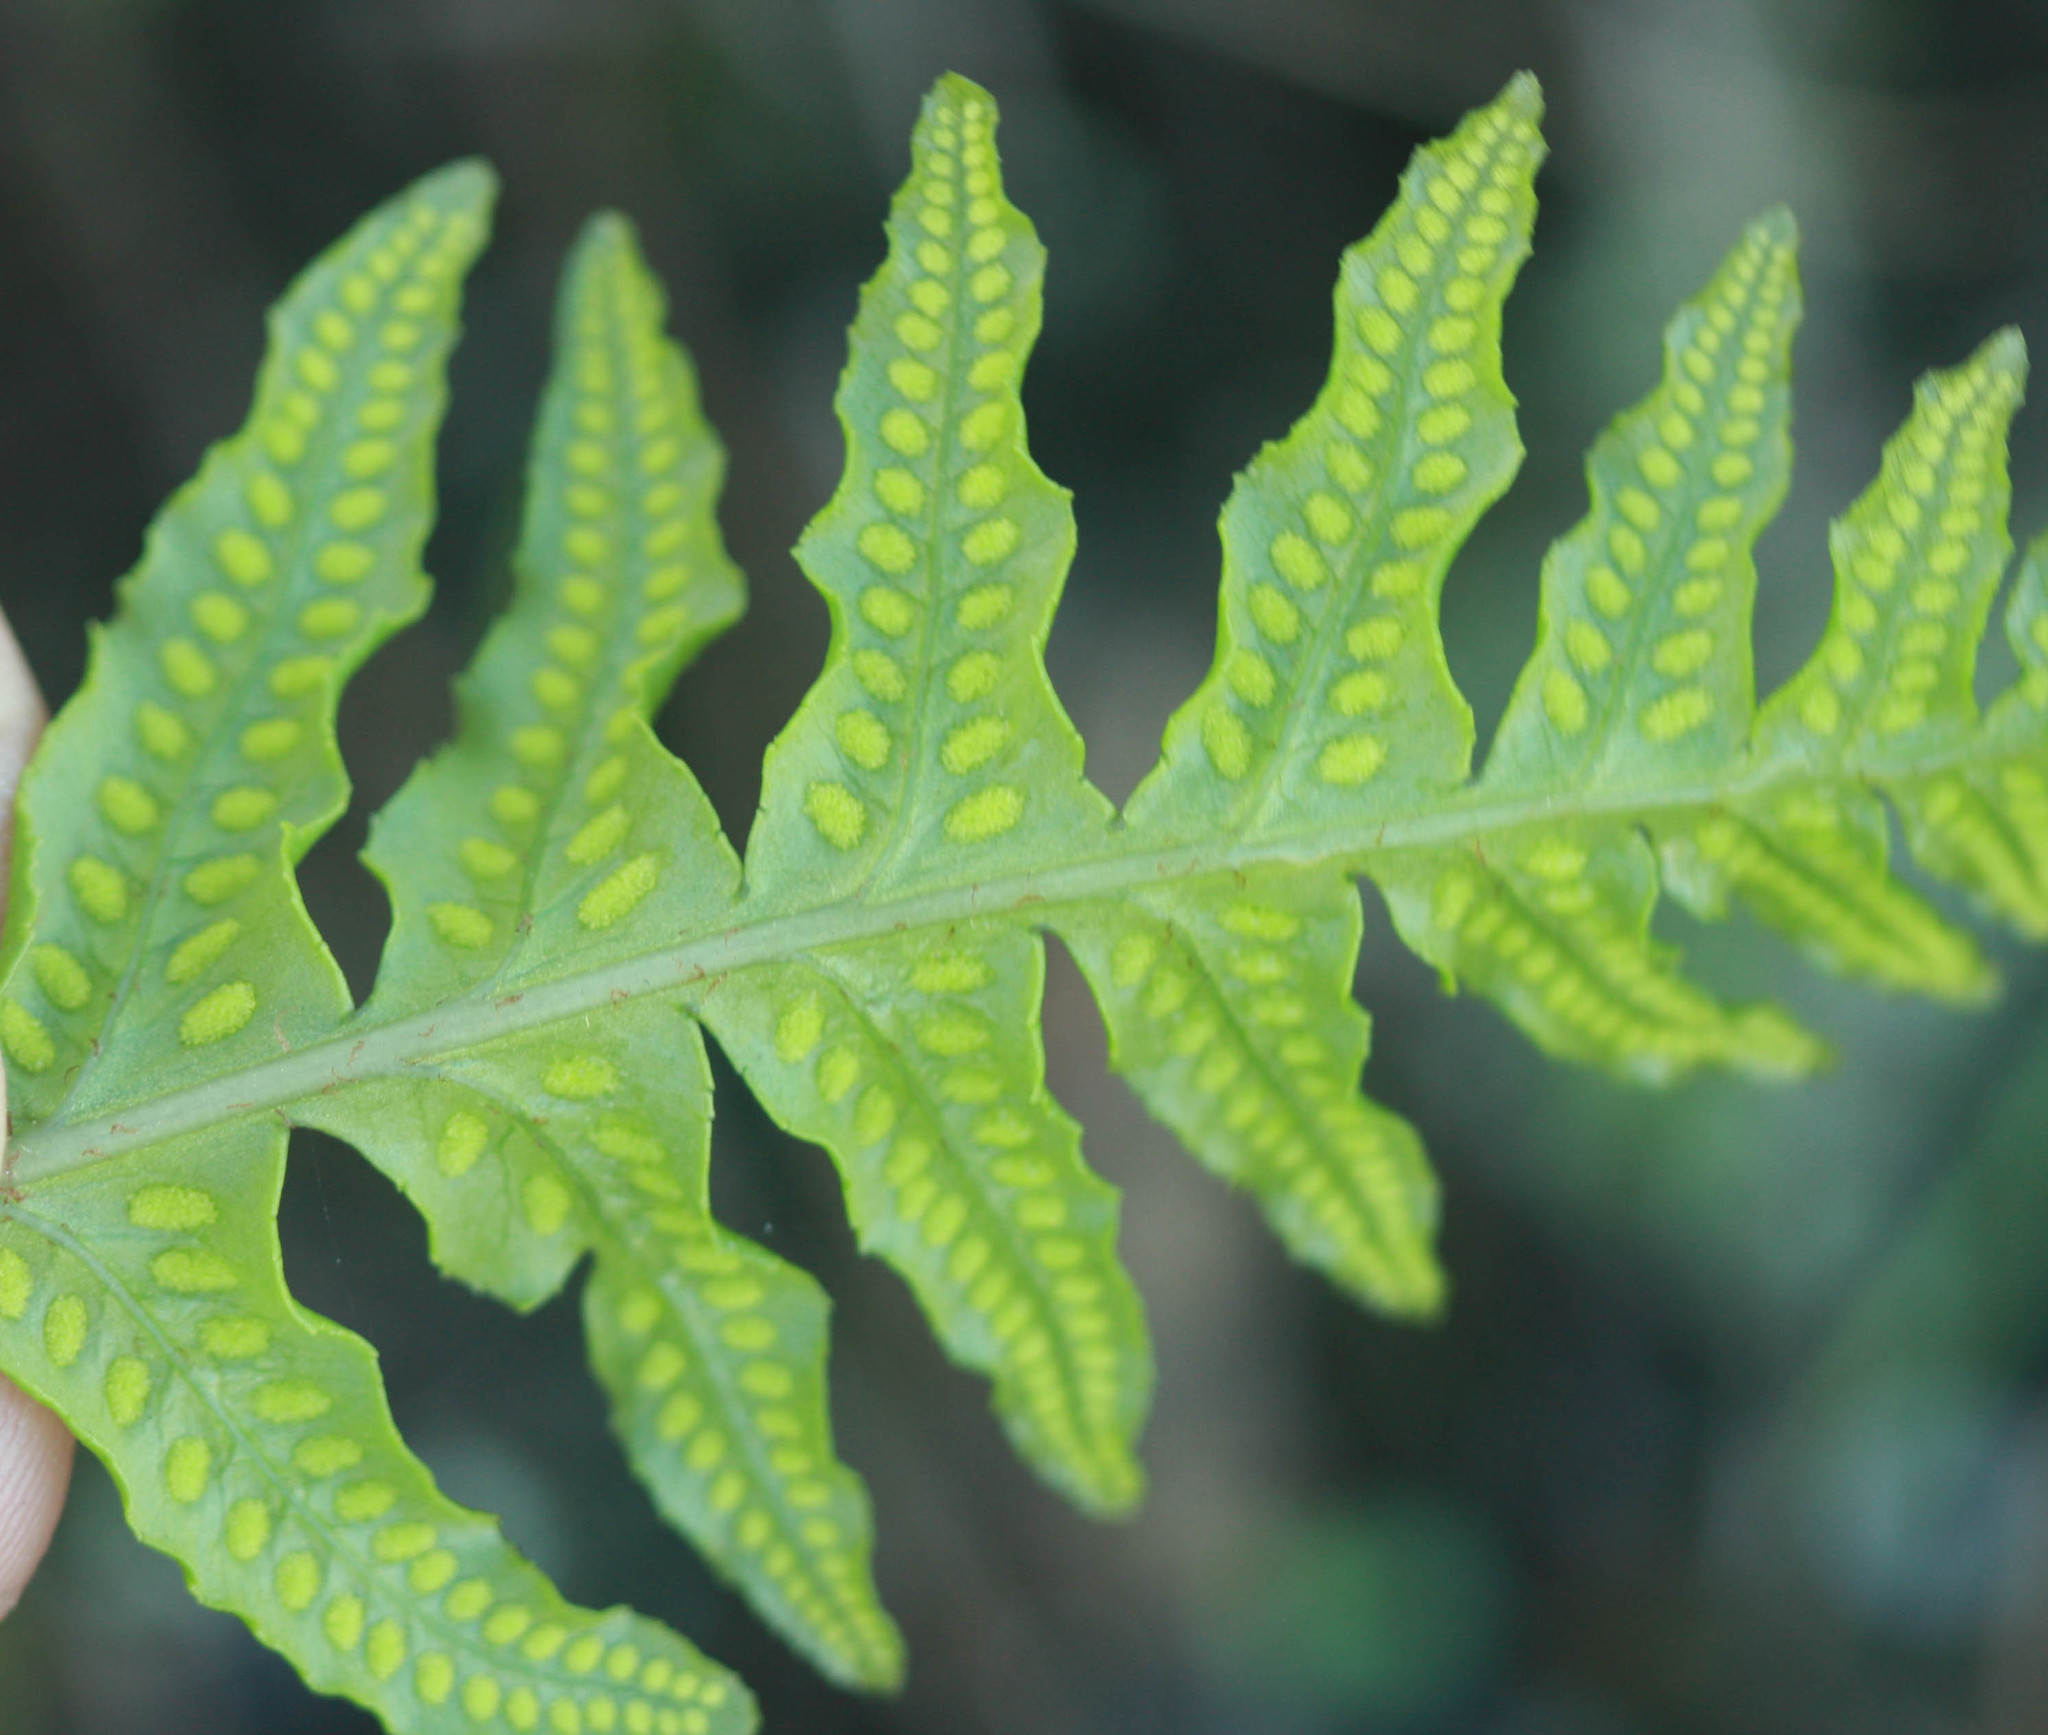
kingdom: Plantae
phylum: Tracheophyta
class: Polypodiopsida
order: Polypodiales
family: Polypodiaceae
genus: Polypodium
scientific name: Polypodium californicum
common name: California polypody
